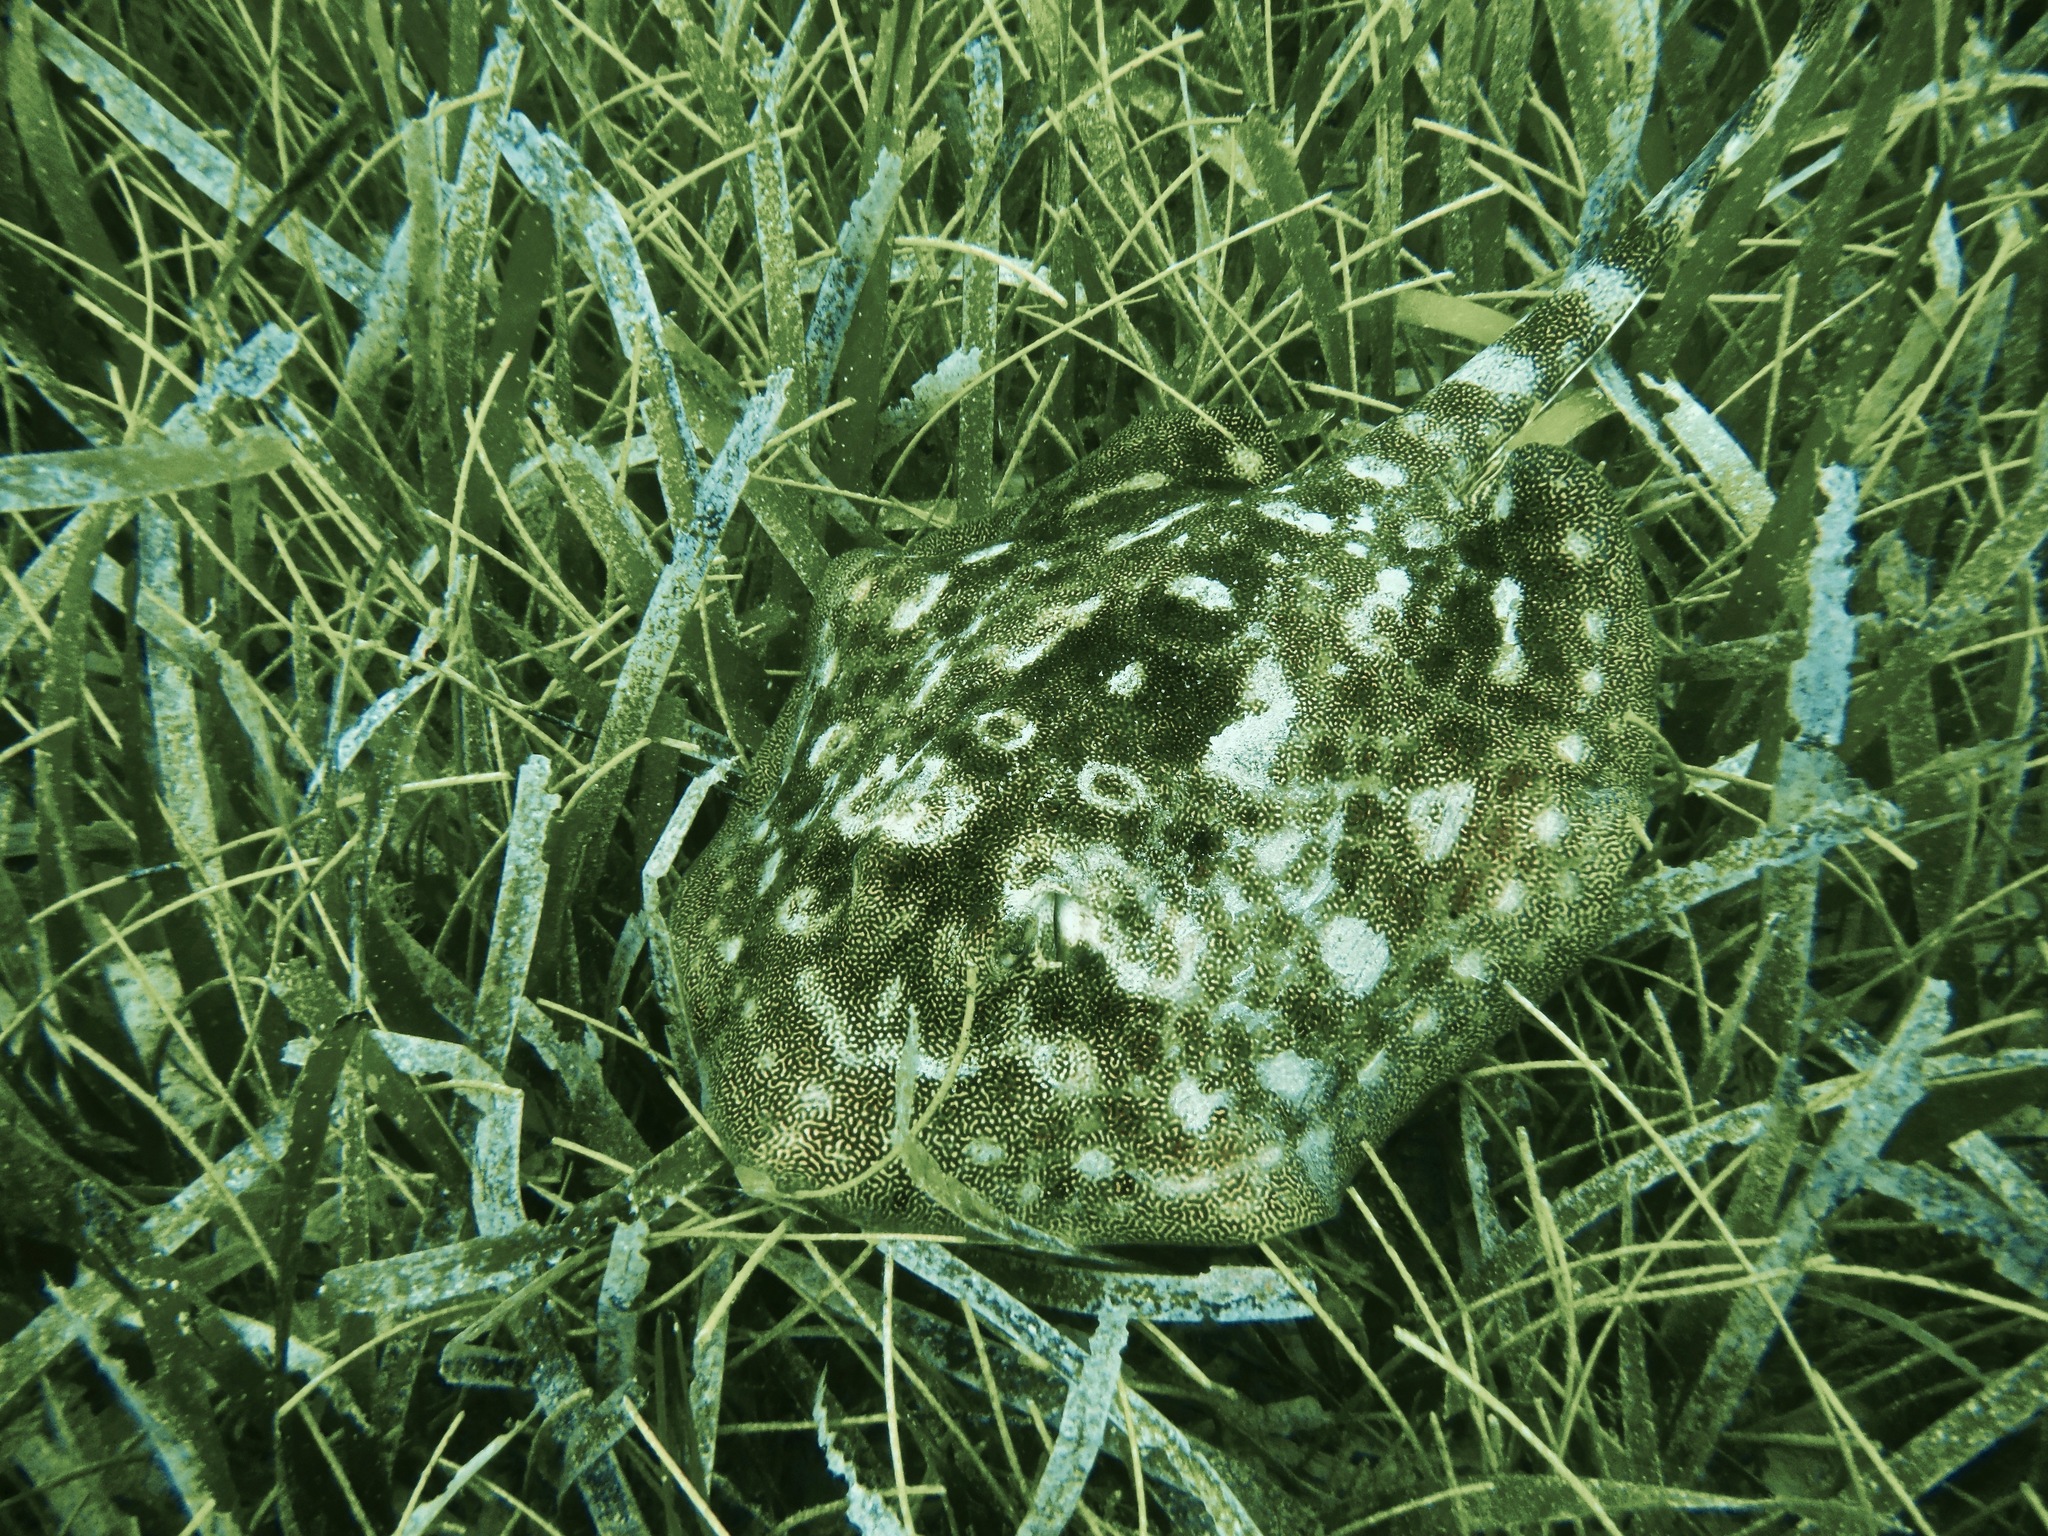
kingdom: Animalia
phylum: Chordata
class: Elasmobranchii
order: Myliobatiformes
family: Urotrygonidae
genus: Urobatis
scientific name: Urobatis jamaicensis
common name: Yellow stingray
